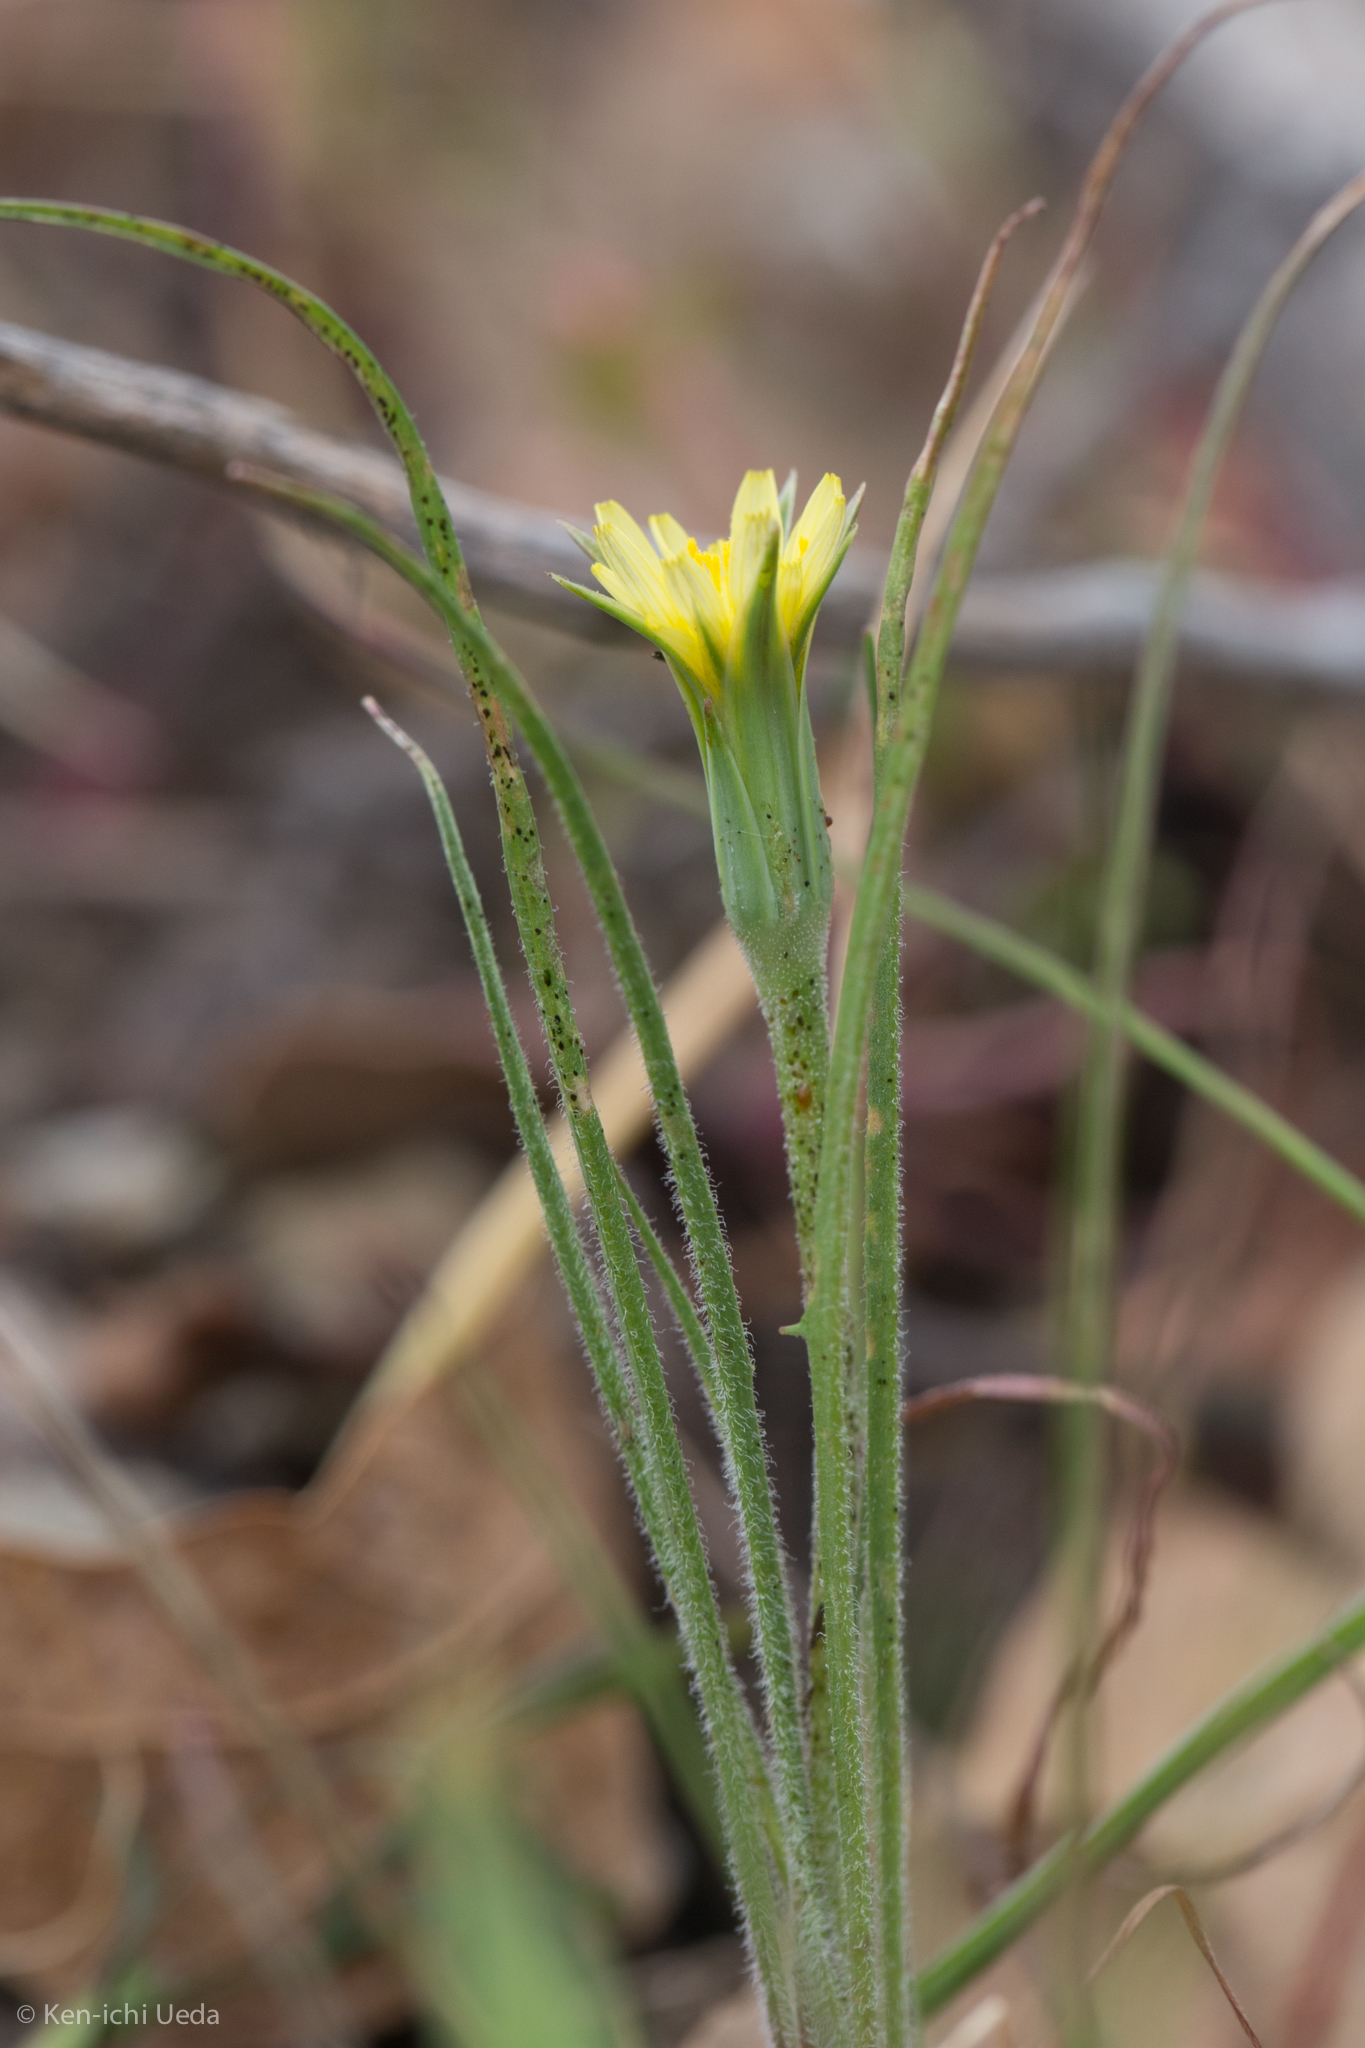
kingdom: Plantae
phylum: Tracheophyta
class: Magnoliopsida
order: Asterales
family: Asteraceae
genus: Microseris
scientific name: Microseris lindleyi
